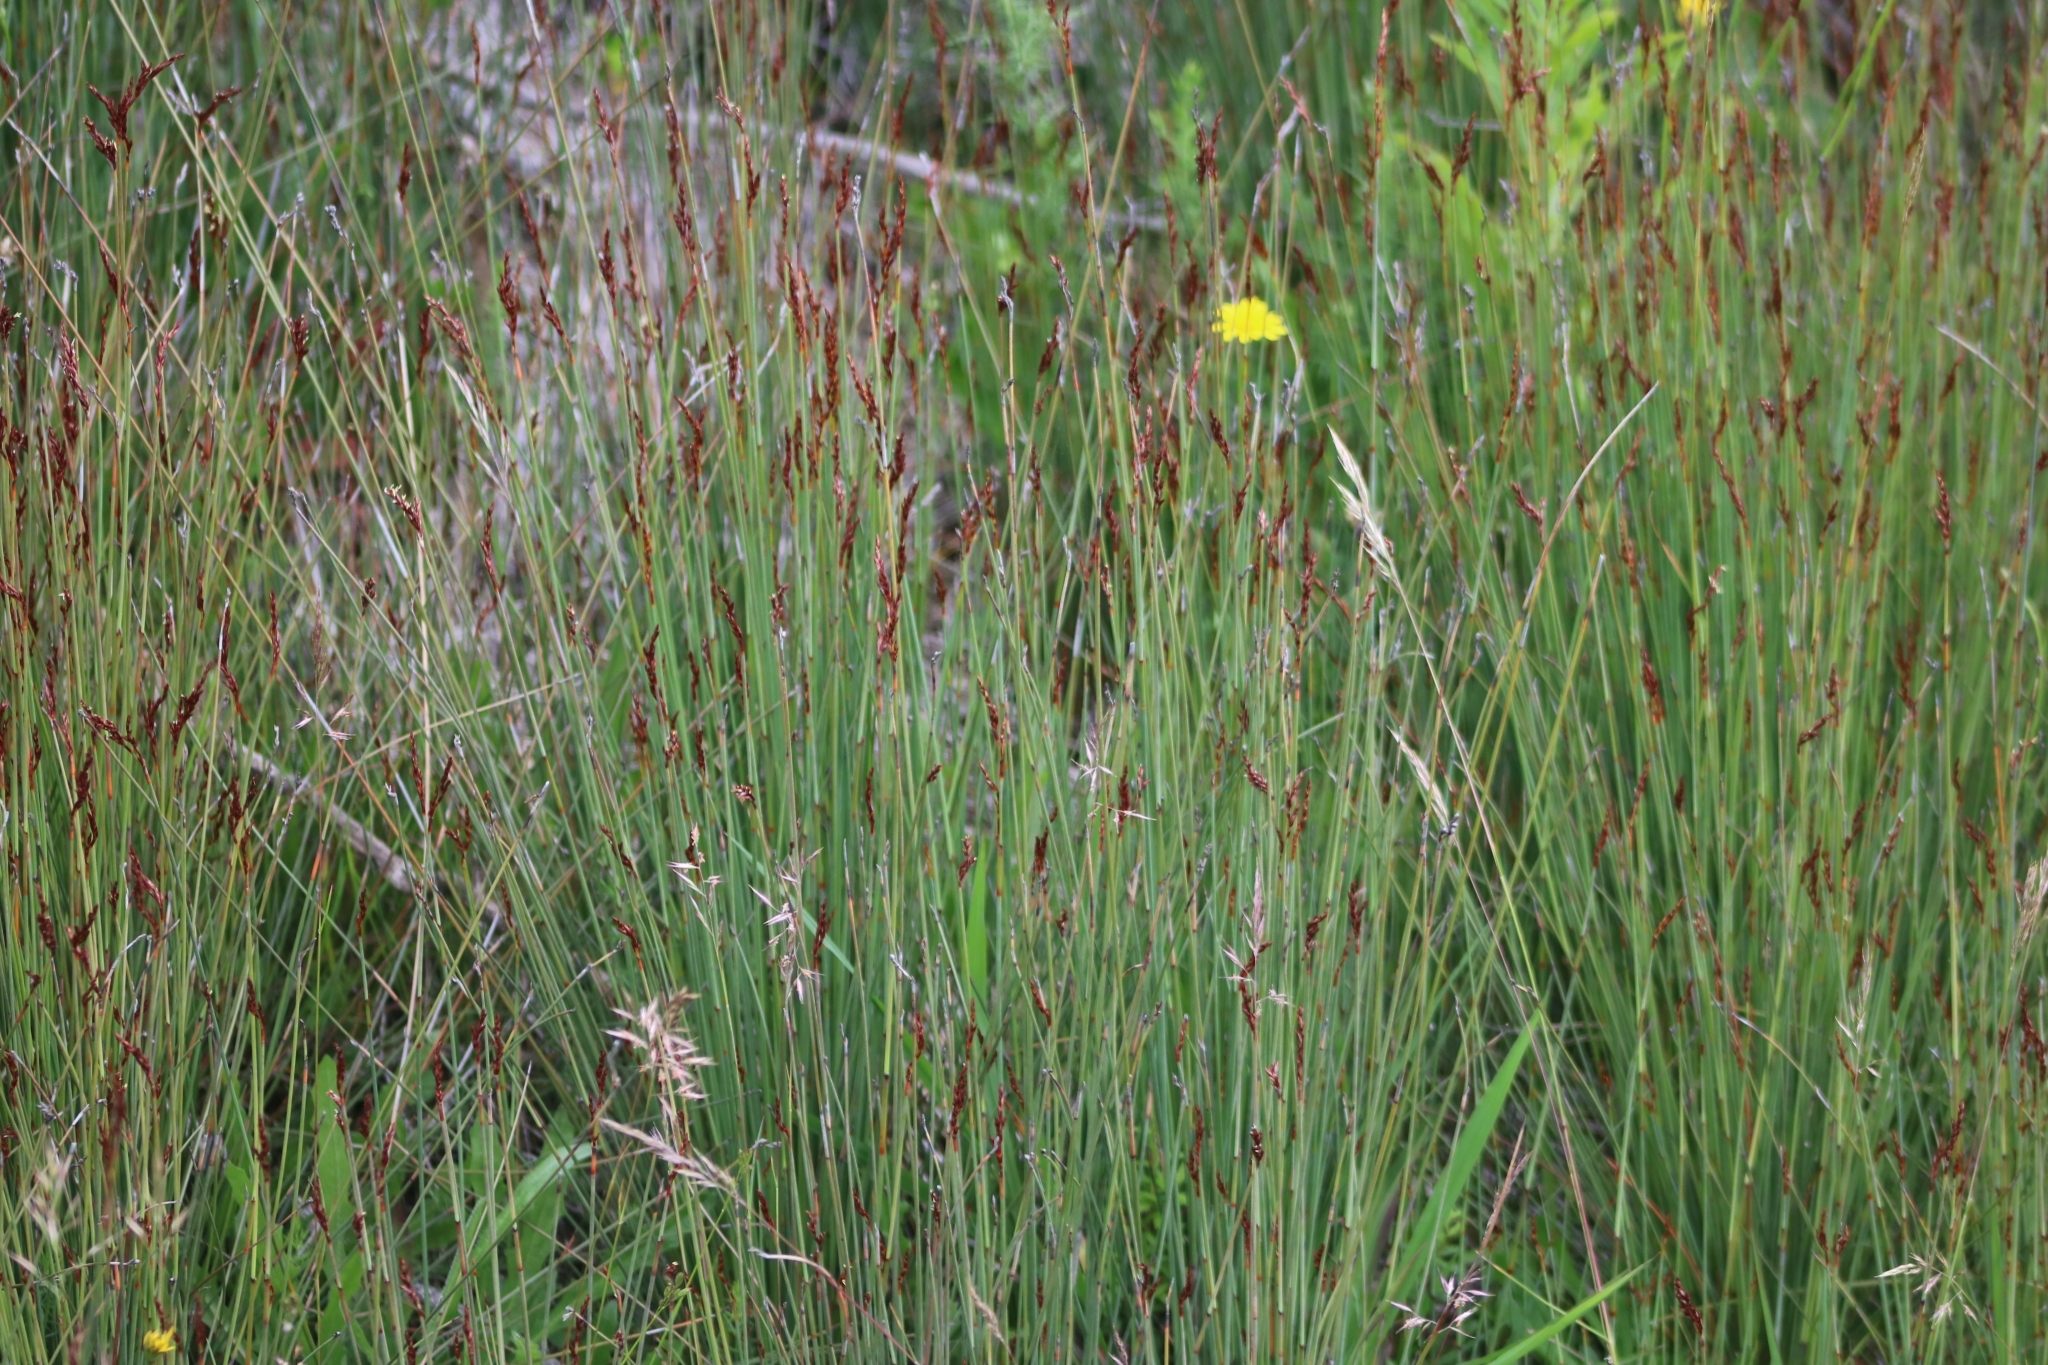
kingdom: Plantae
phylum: Tracheophyta
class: Liliopsida
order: Poales
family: Cyperaceae
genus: Machaerina
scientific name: Machaerina juncea
